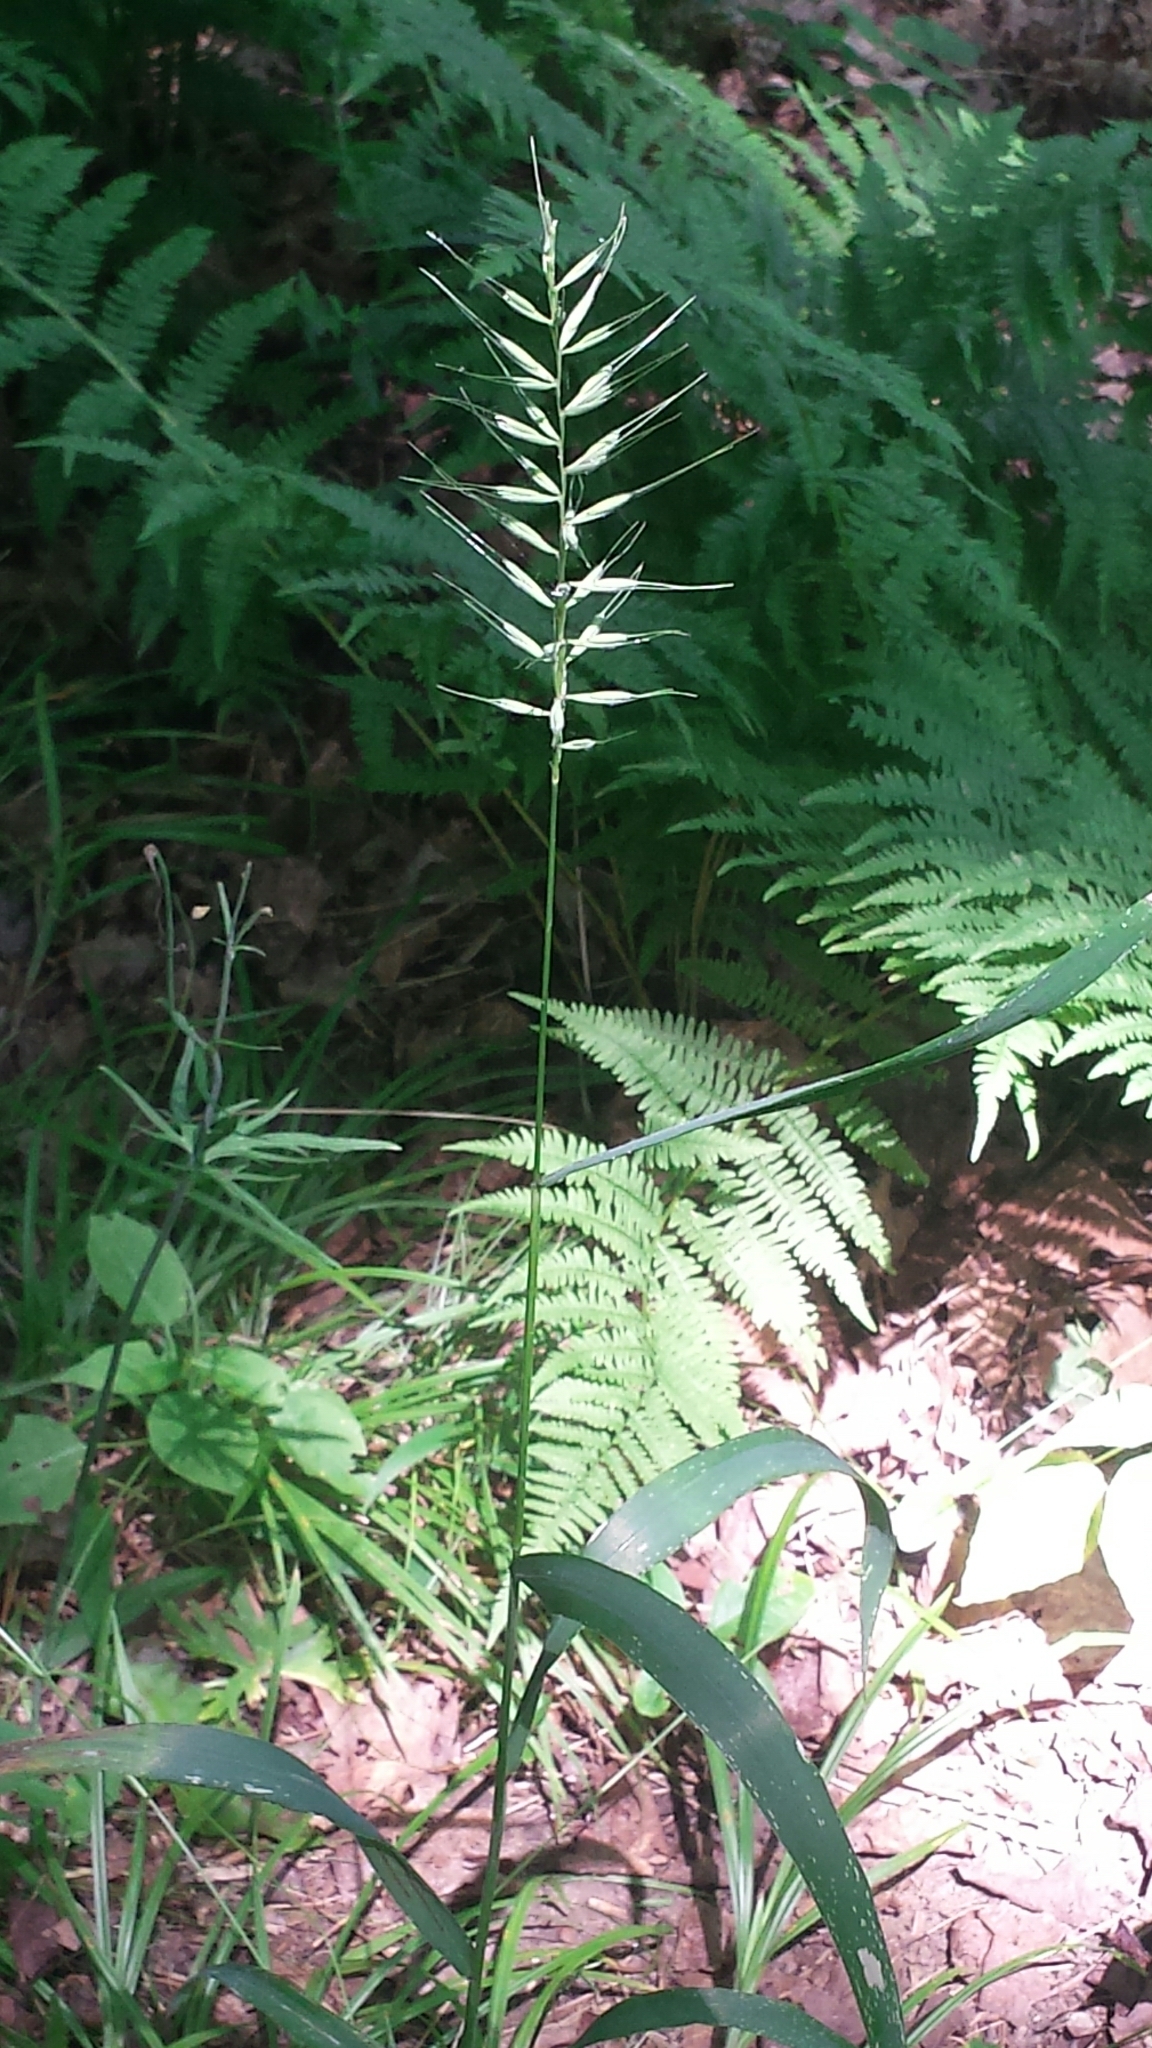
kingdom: Plantae
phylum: Tracheophyta
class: Liliopsida
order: Poales
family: Poaceae
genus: Elymus
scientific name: Elymus hystrix
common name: Bottlebrush grass
